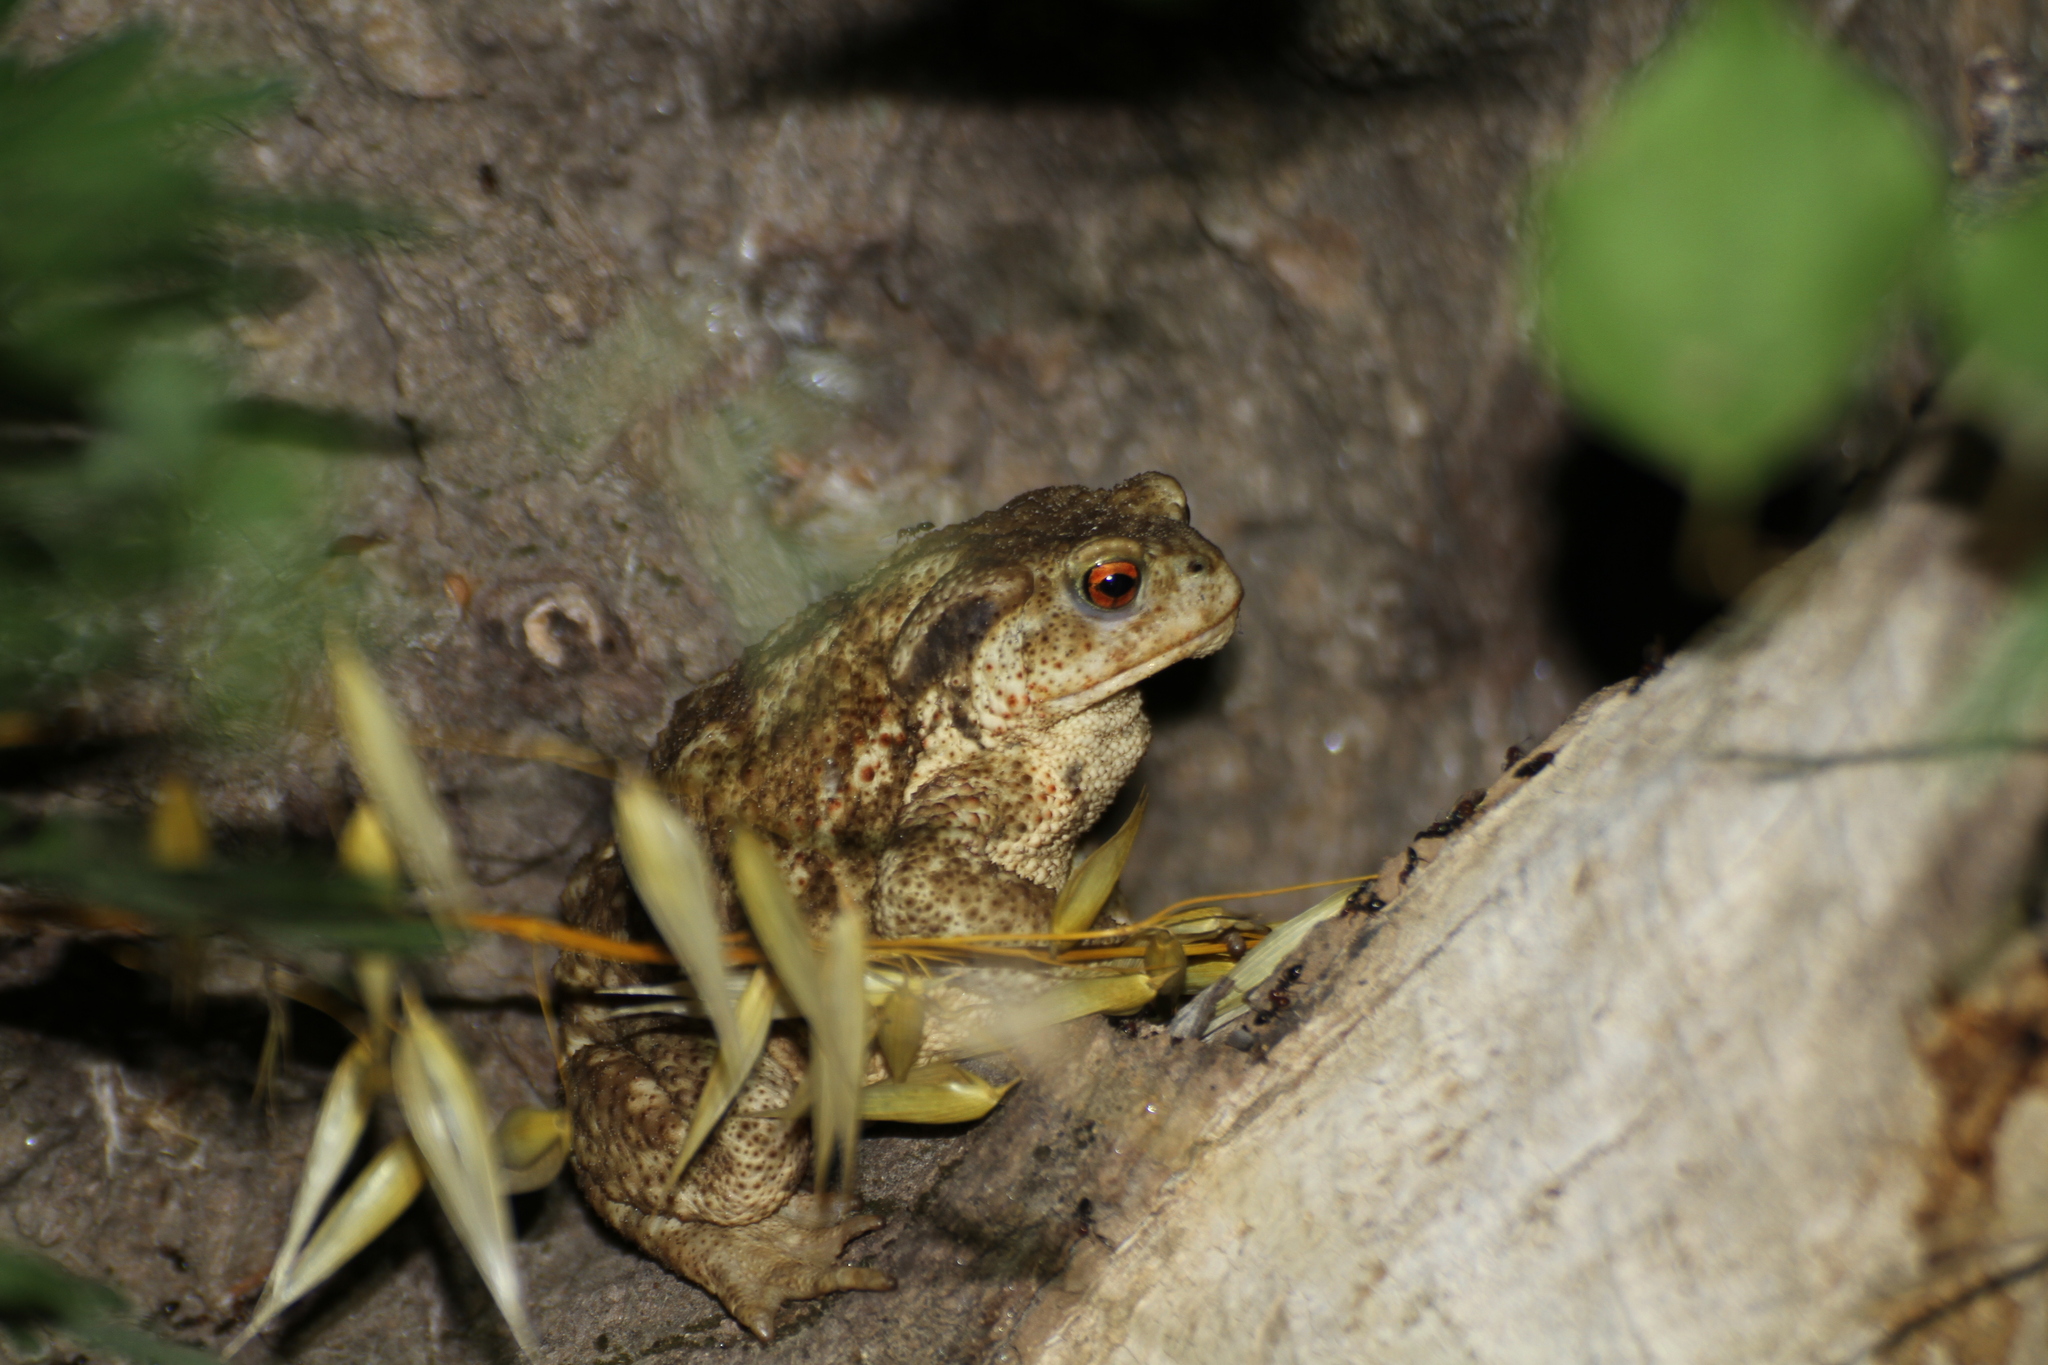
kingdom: Animalia
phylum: Chordata
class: Amphibia
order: Anura
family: Bufonidae
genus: Bufo
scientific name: Bufo spinosus
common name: Western common toad
